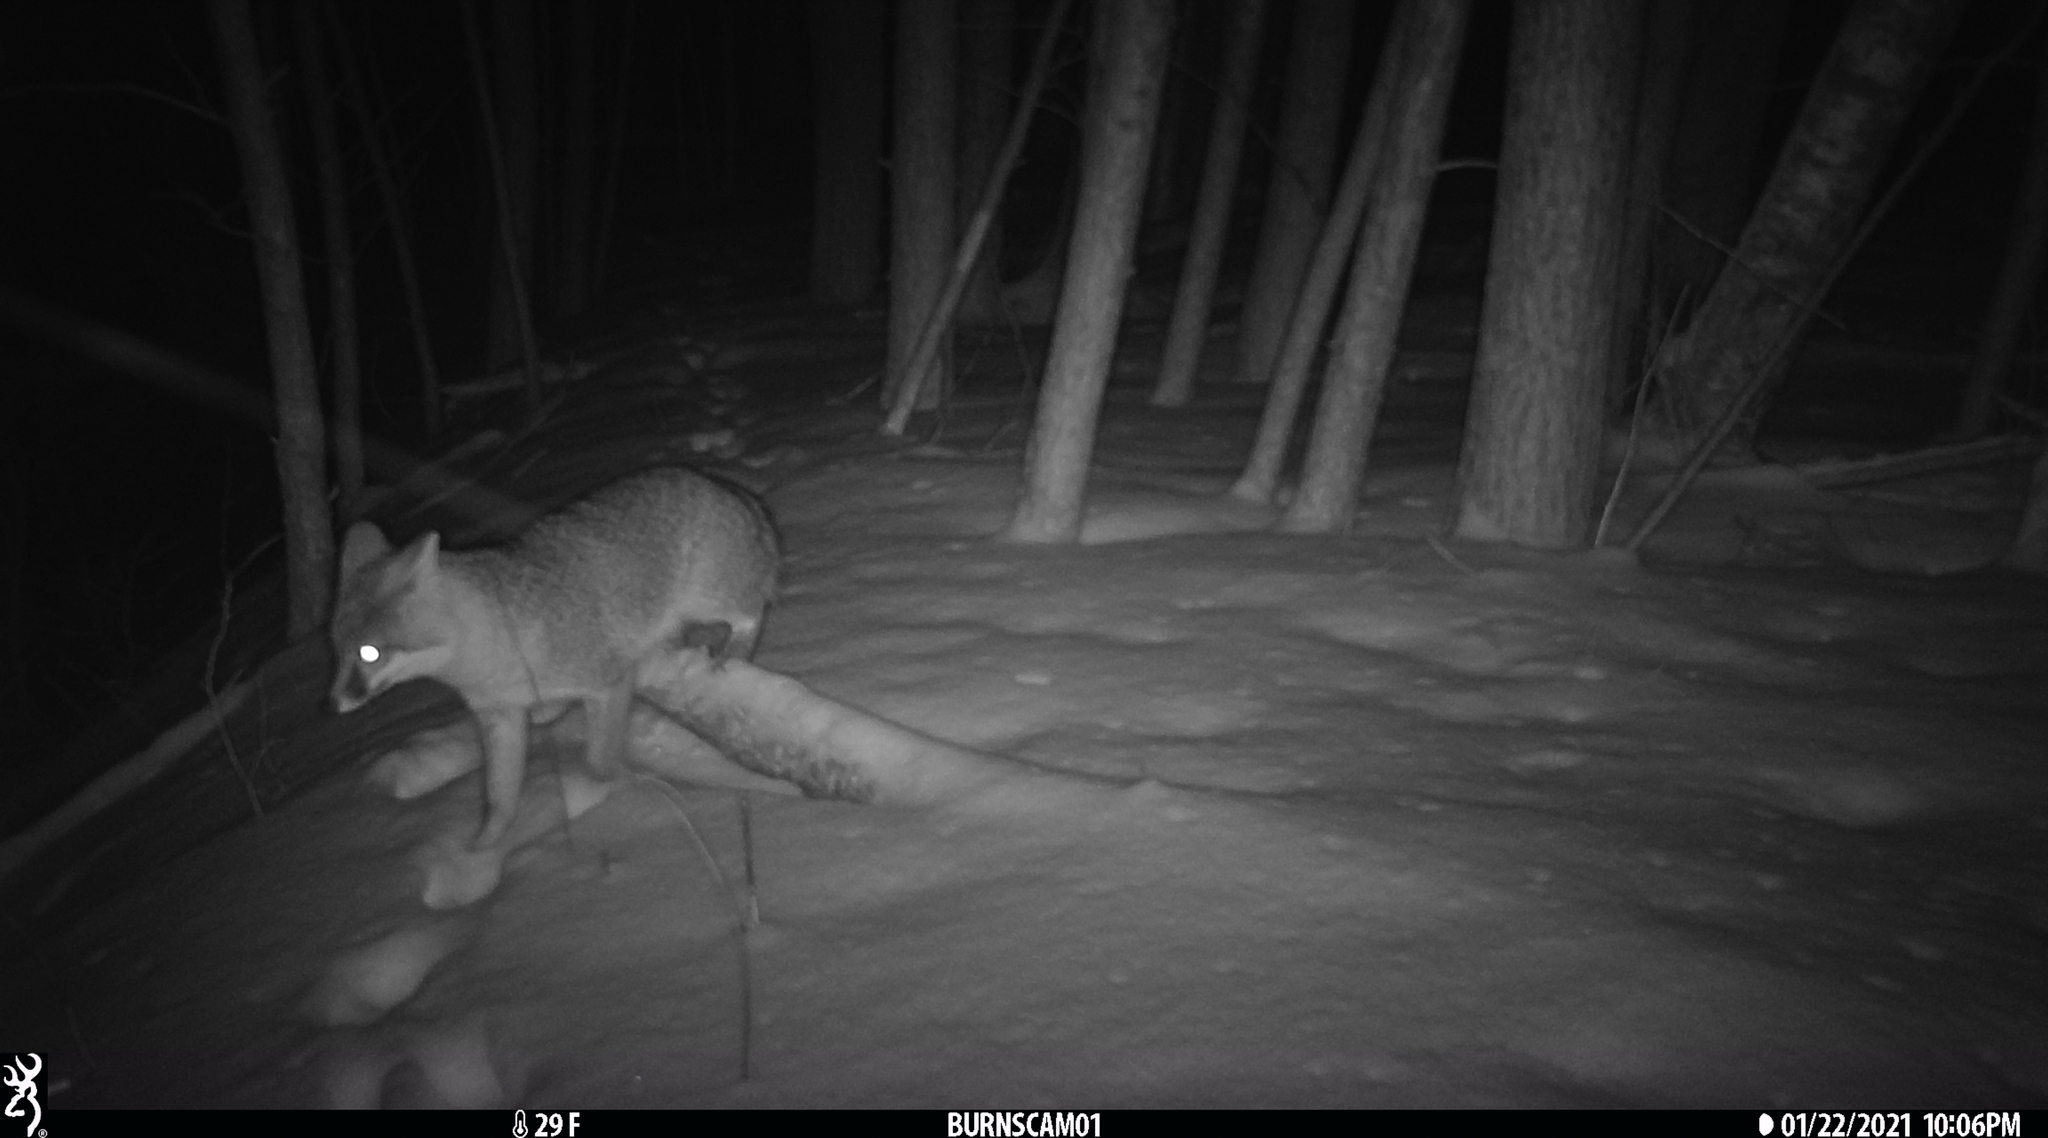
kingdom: Animalia
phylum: Chordata
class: Mammalia
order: Carnivora
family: Canidae
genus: Urocyon
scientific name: Urocyon cinereoargenteus
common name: Gray fox
